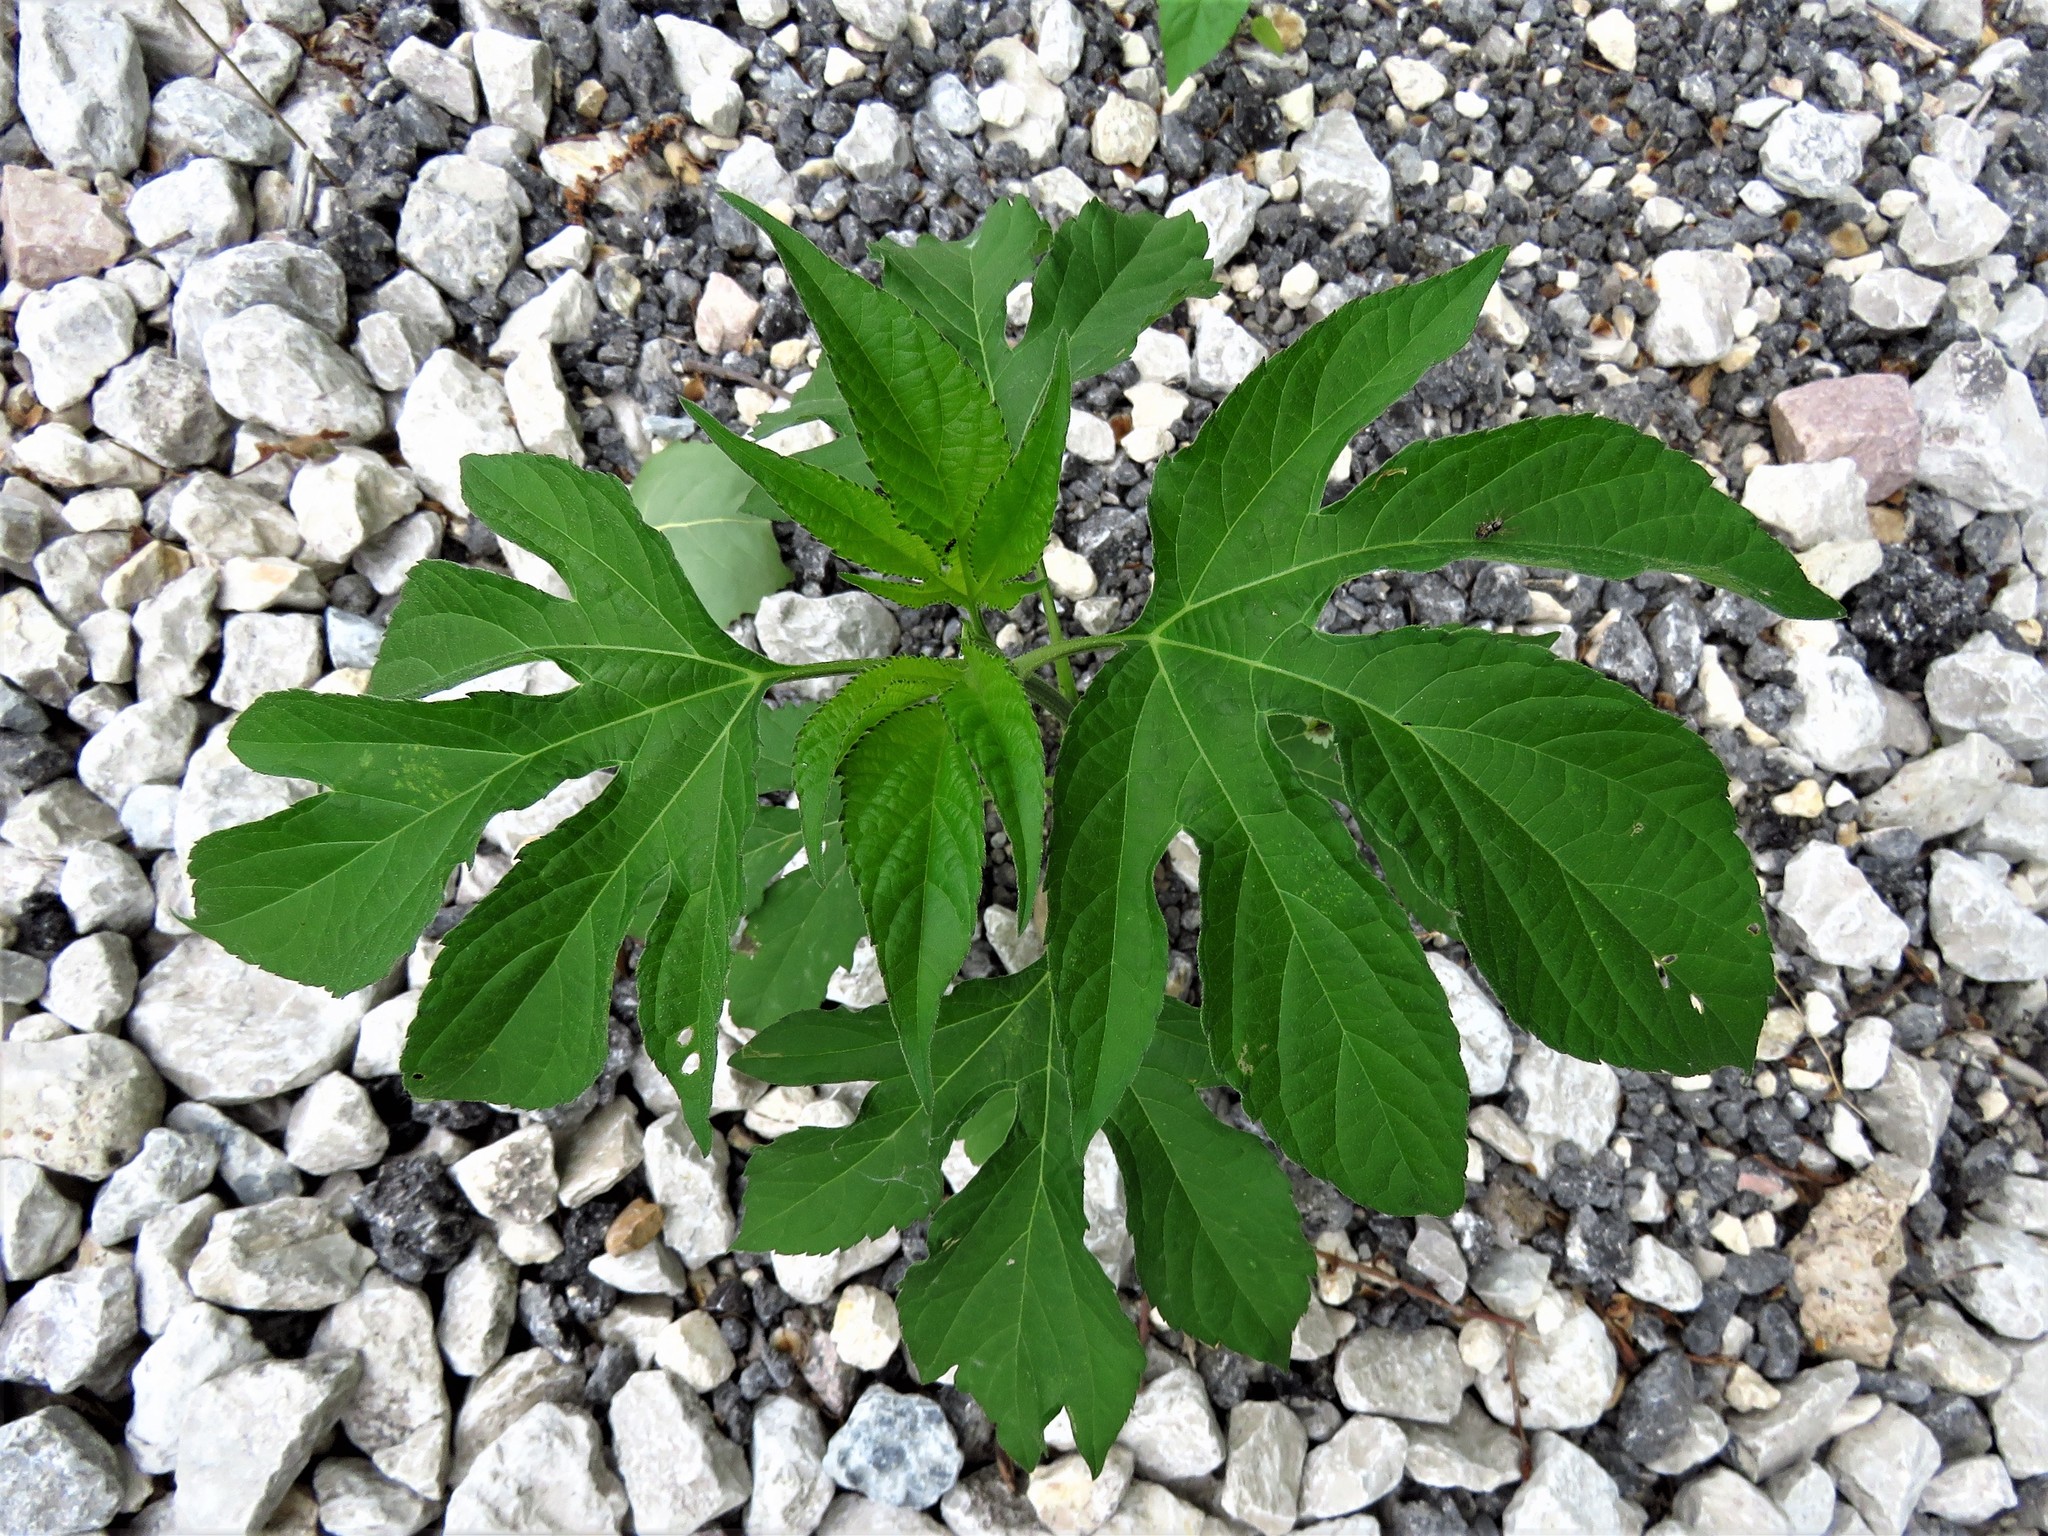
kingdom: Plantae
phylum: Tracheophyta
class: Magnoliopsida
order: Asterales
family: Asteraceae
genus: Ambrosia
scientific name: Ambrosia trifida
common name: Giant ragweed
